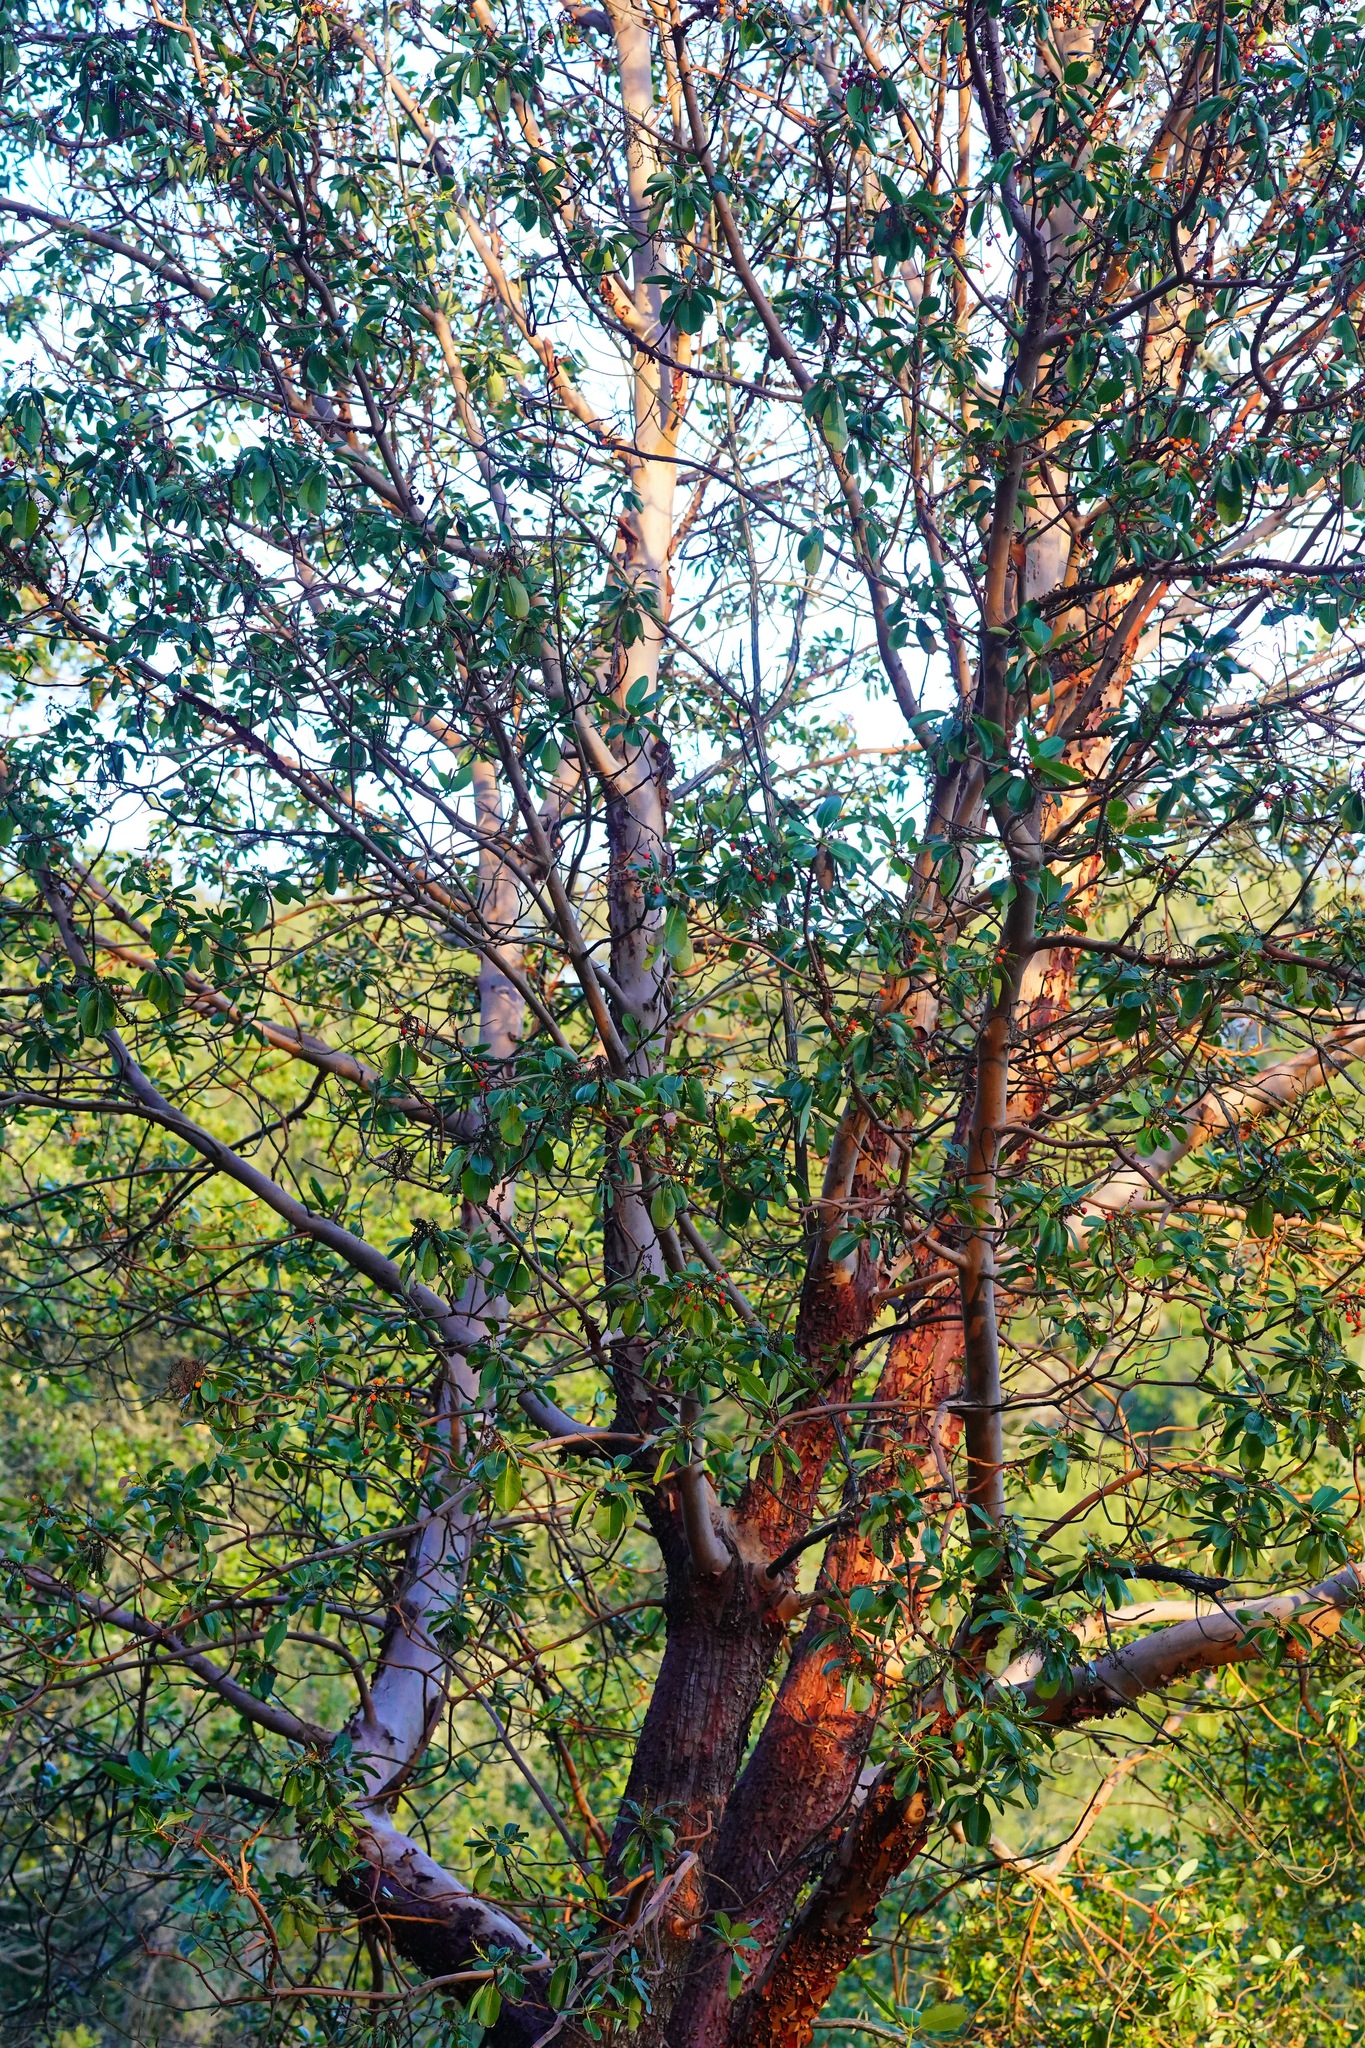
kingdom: Plantae
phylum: Tracheophyta
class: Magnoliopsida
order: Ericales
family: Ericaceae
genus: Arbutus
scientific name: Arbutus menziesii
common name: Pacific madrone
